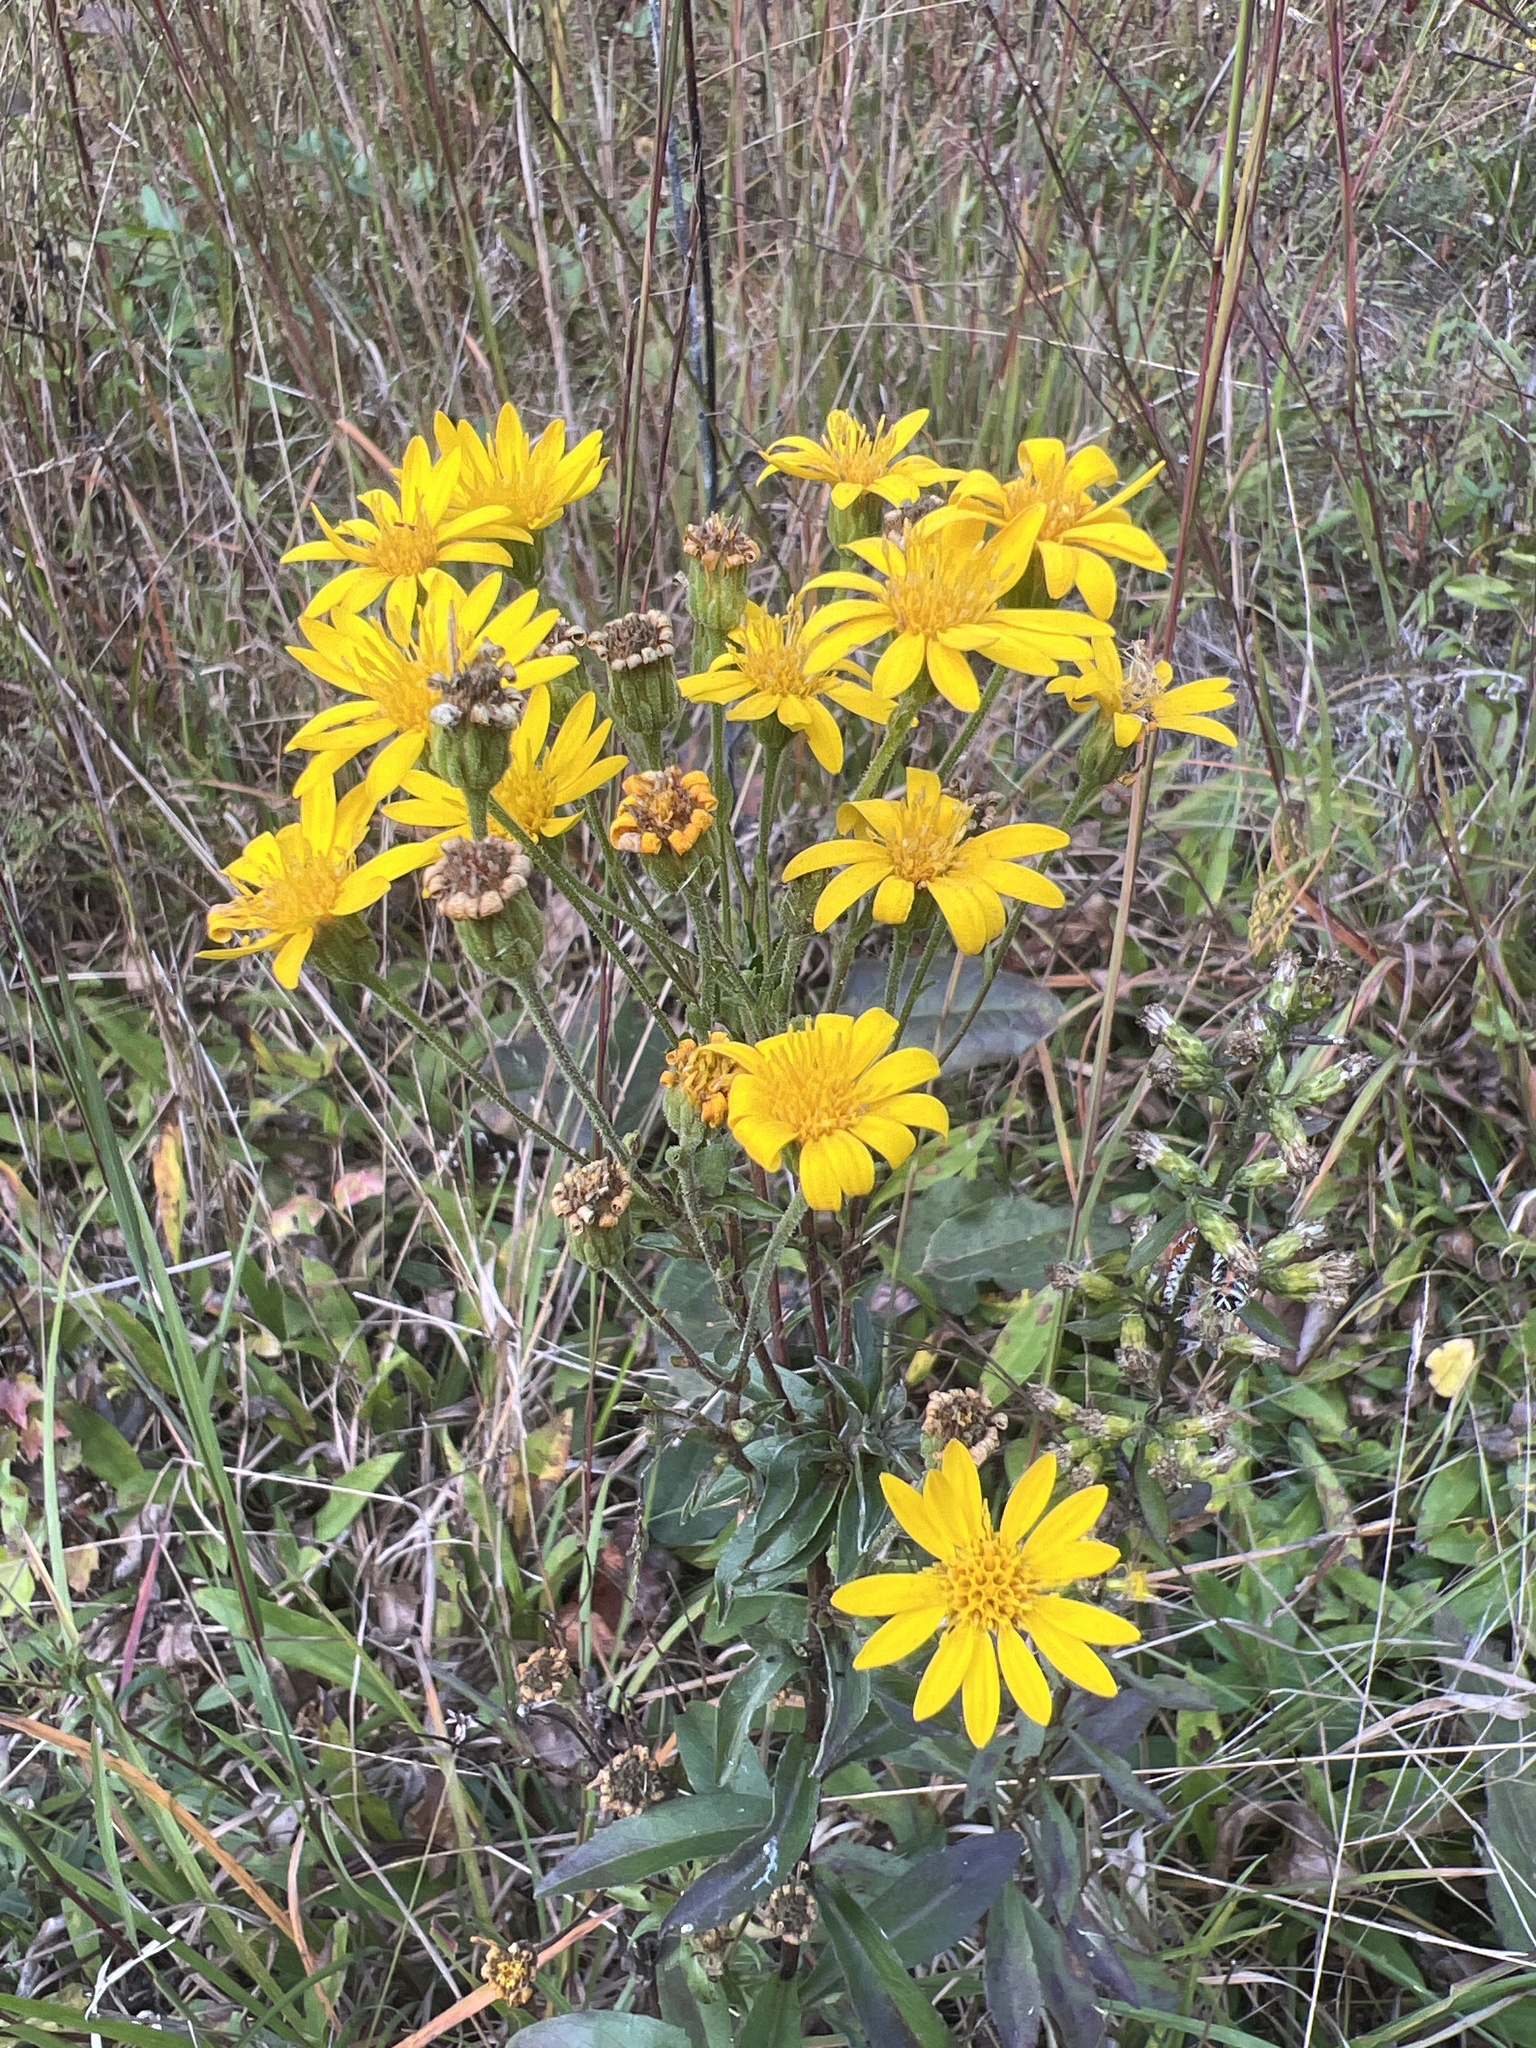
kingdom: Plantae
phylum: Tracheophyta
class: Magnoliopsida
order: Asterales
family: Asteraceae
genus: Chrysopsis
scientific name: Chrysopsis mariana
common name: Maryland golden-aster
